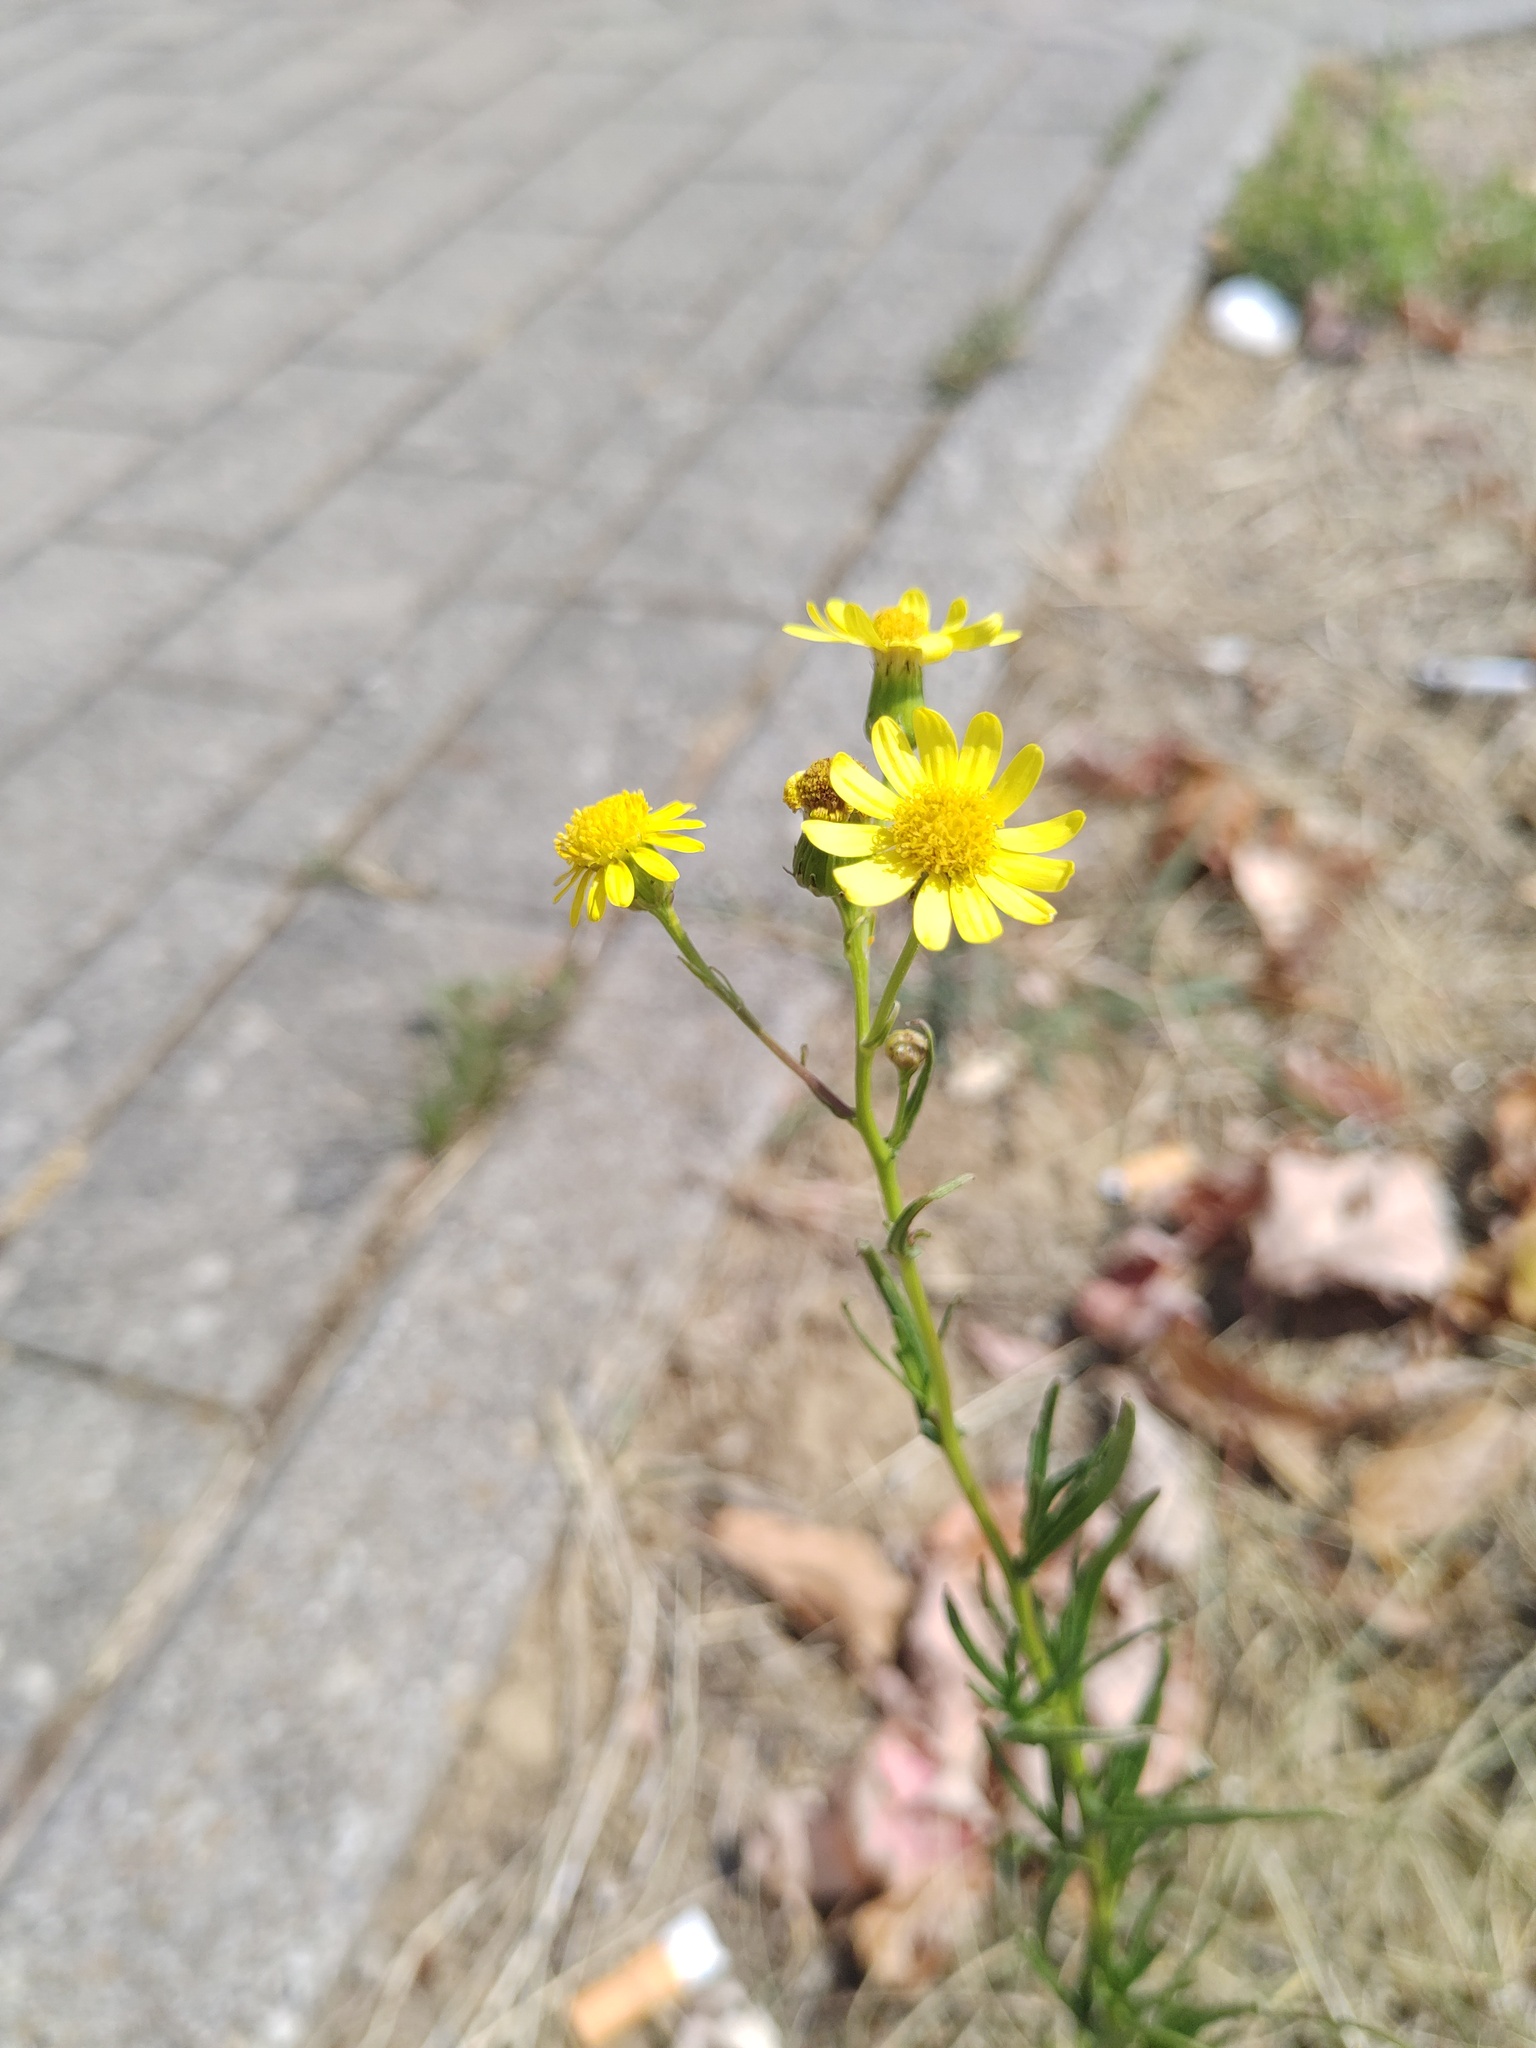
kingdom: Plantae
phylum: Tracheophyta
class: Magnoliopsida
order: Asterales
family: Asteraceae
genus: Senecio
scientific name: Senecio inaequidens
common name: Narrow-leaved ragwort
